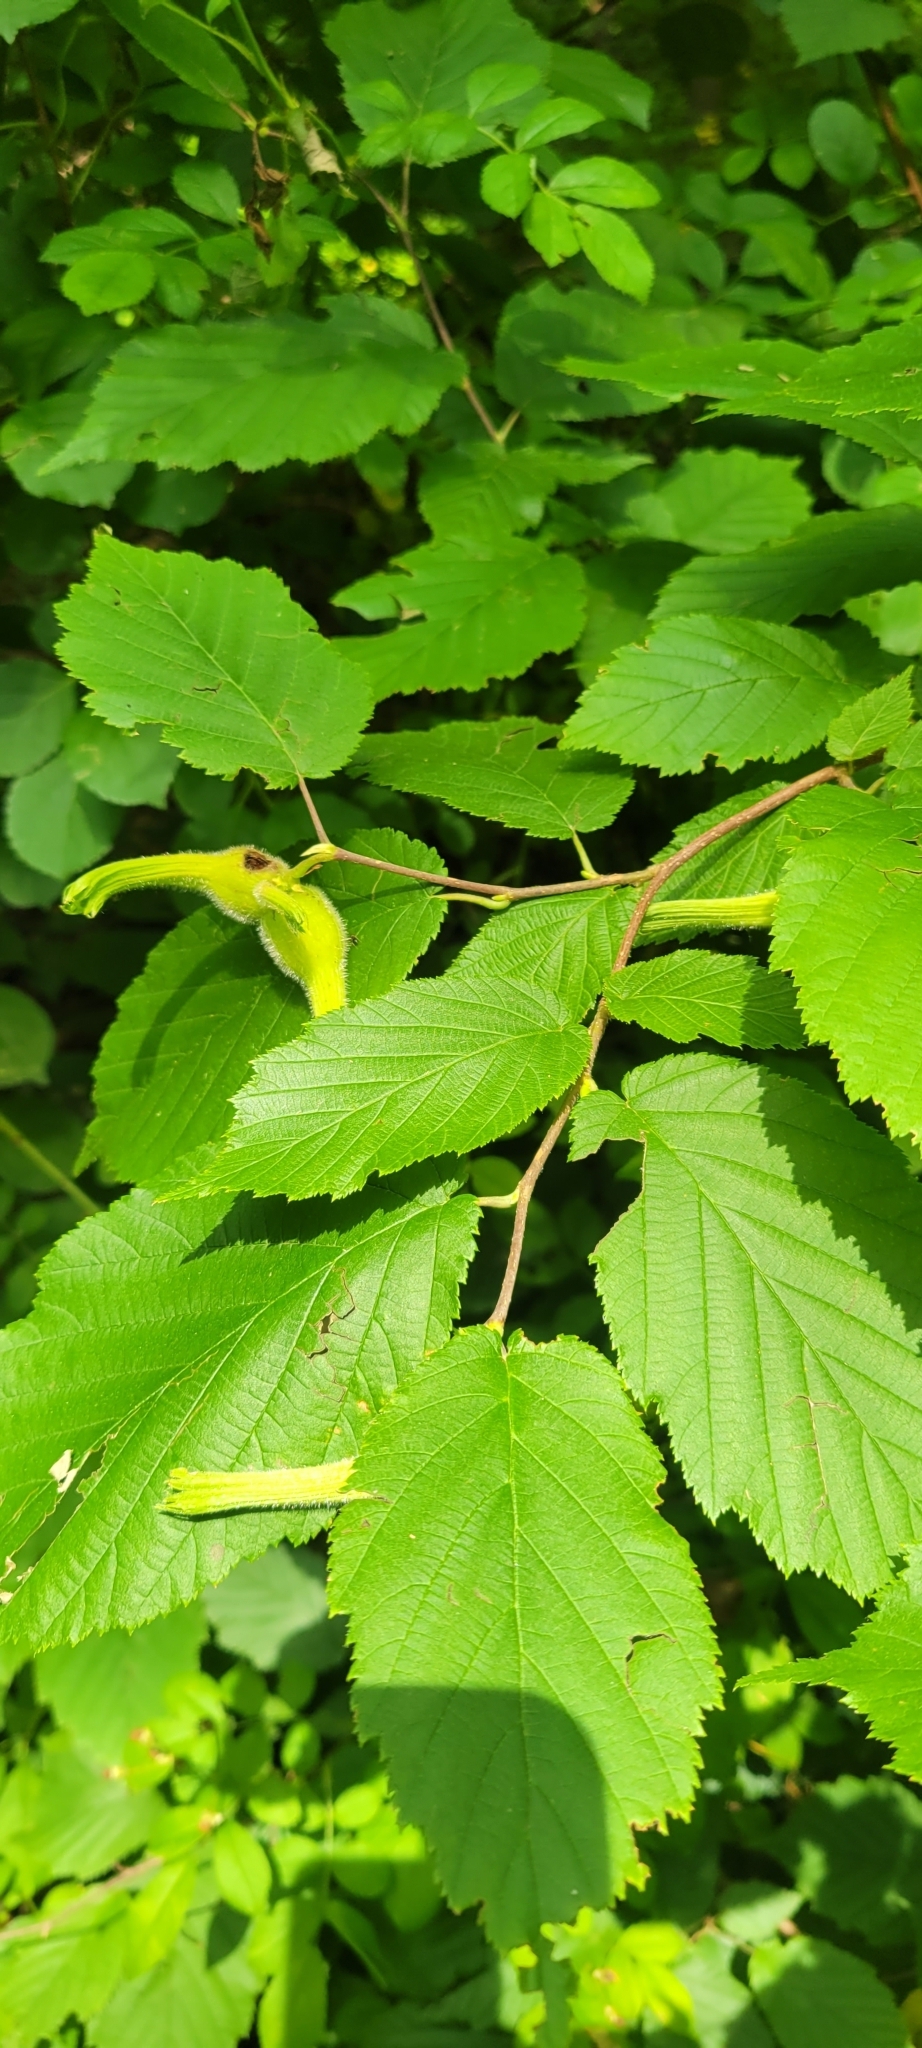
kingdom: Plantae
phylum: Tracheophyta
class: Magnoliopsida
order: Fagales
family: Betulaceae
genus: Corylus
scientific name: Corylus cornuta
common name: Beaked hazel
